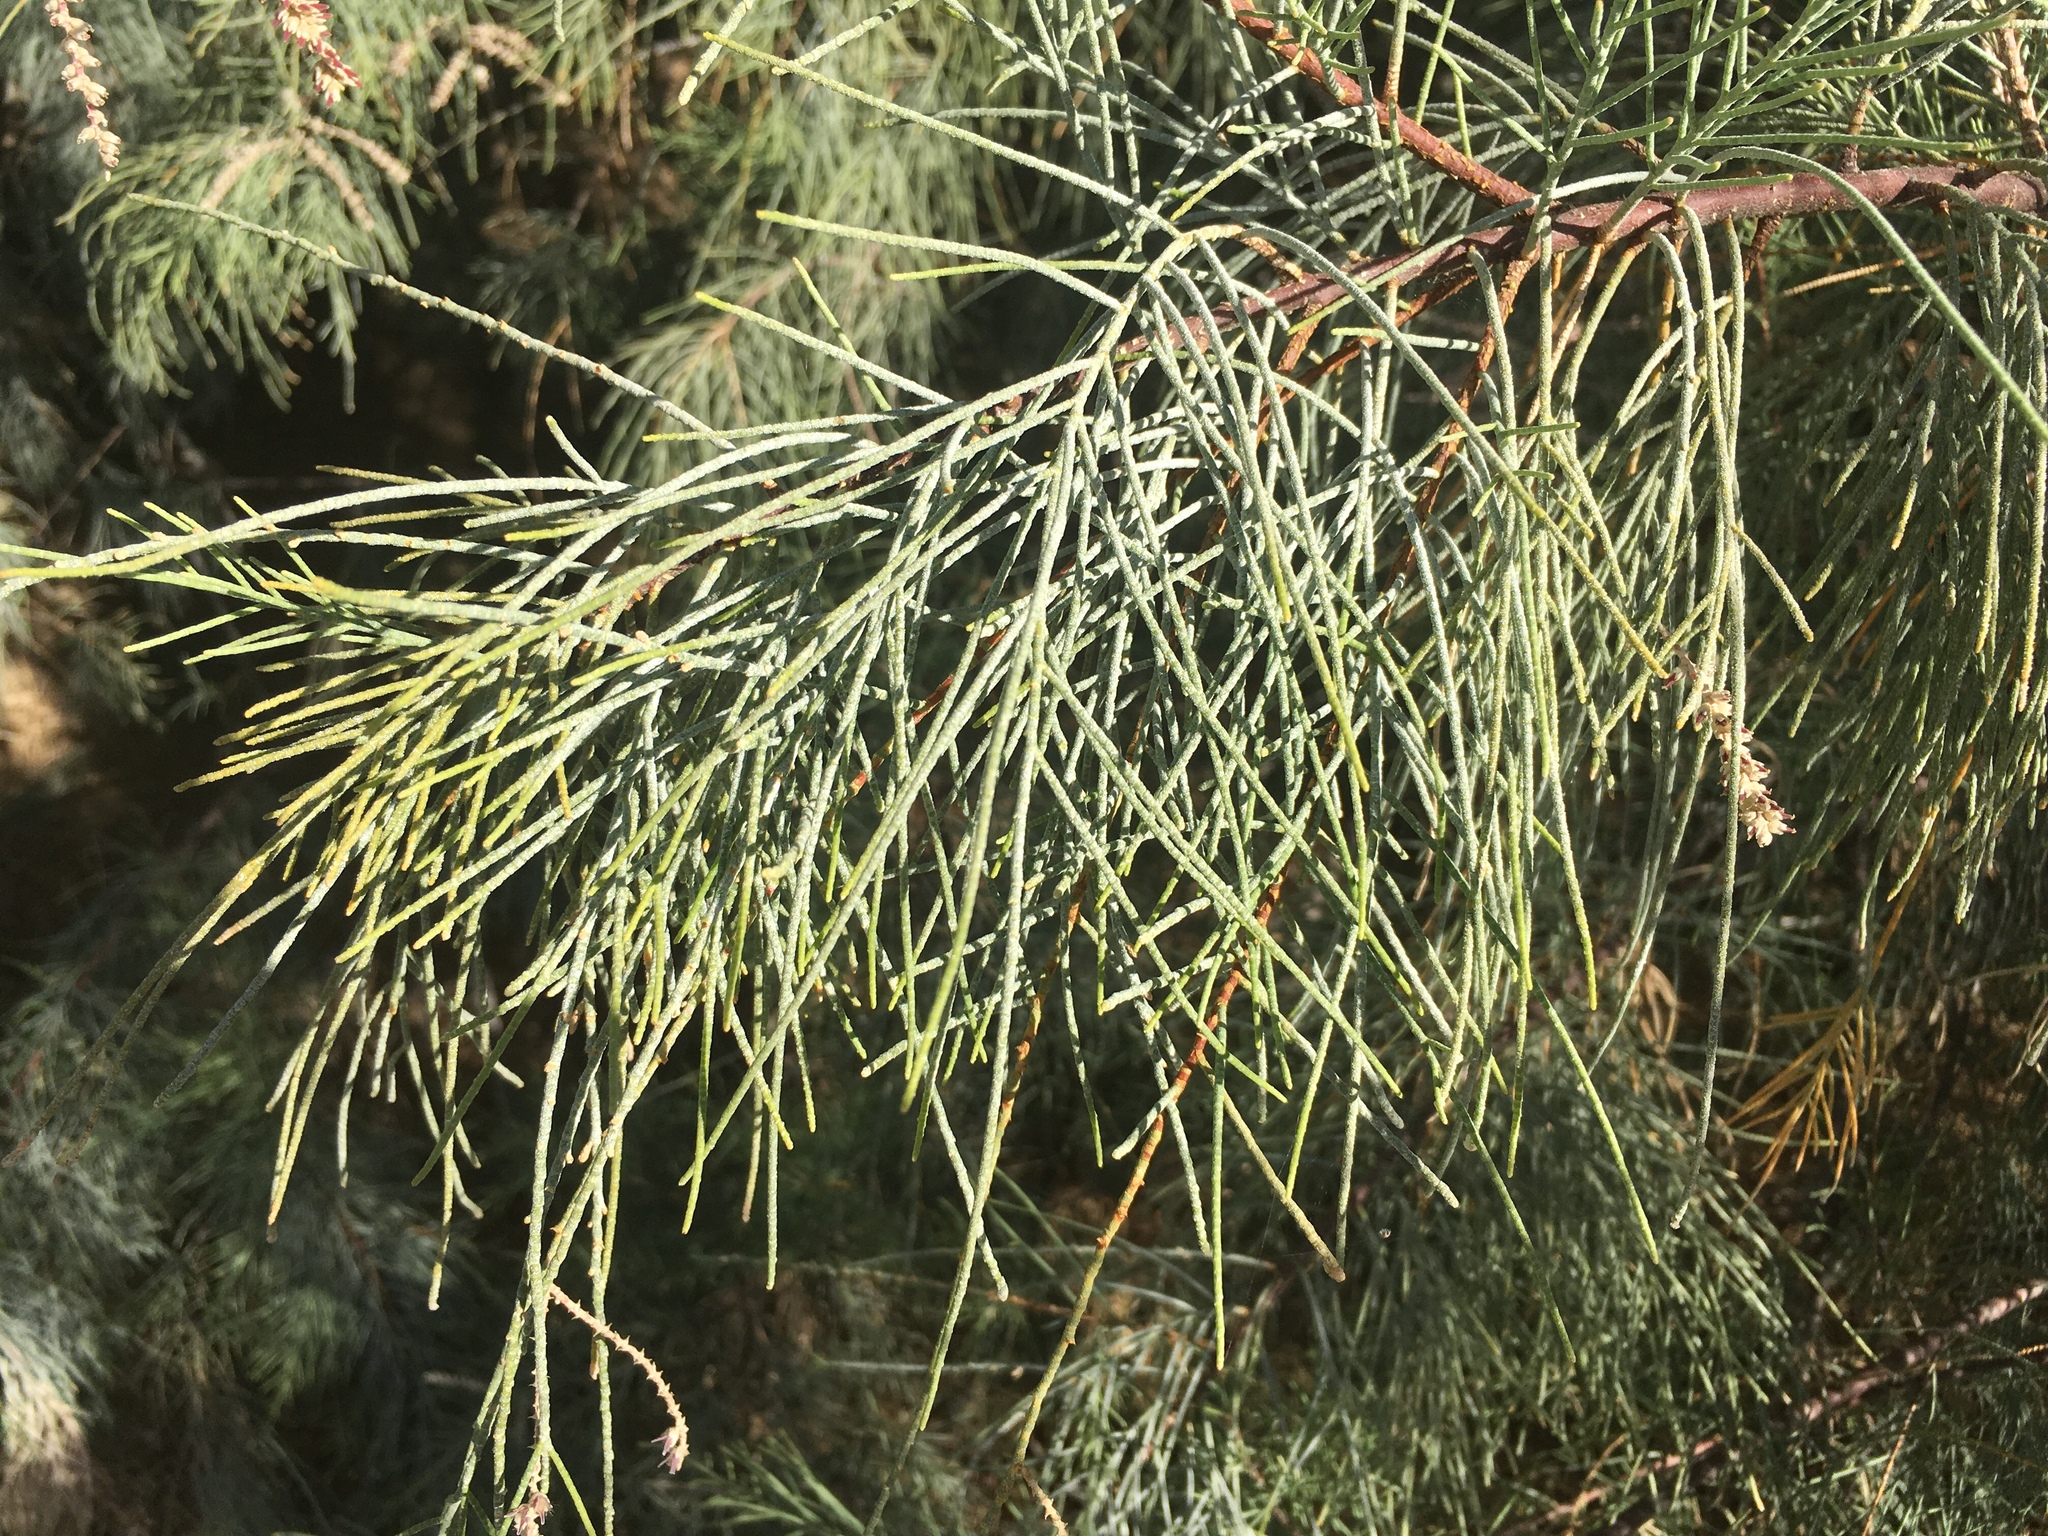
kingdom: Plantae
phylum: Tracheophyta
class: Magnoliopsida
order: Caryophyllales
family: Tamaricaceae
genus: Tamarix
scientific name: Tamarix aphylla
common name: Athel tamarisk
